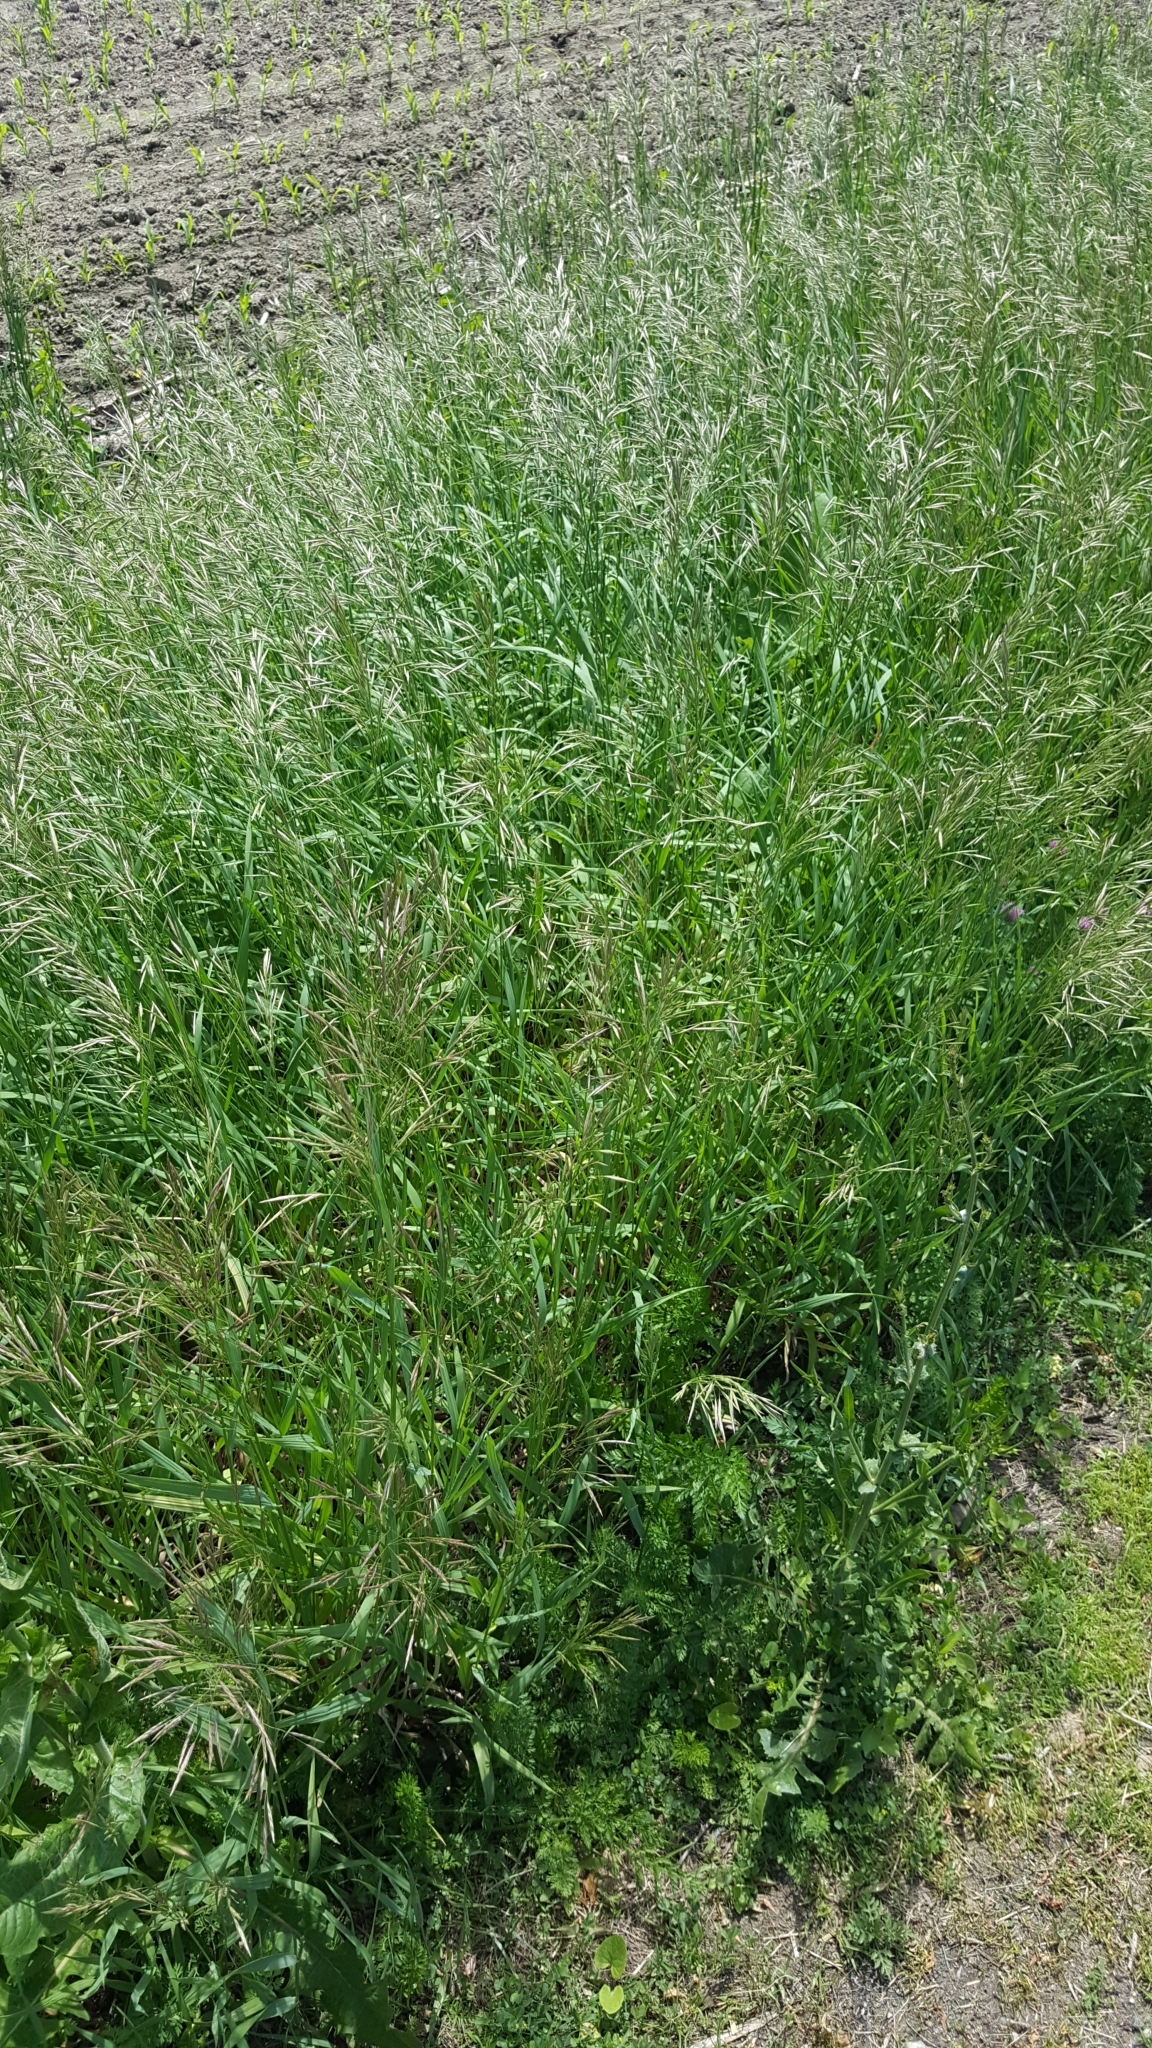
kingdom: Plantae
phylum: Tracheophyta
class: Liliopsida
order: Poales
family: Poaceae
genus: Bromus
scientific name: Bromus inermis
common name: Smooth brome
